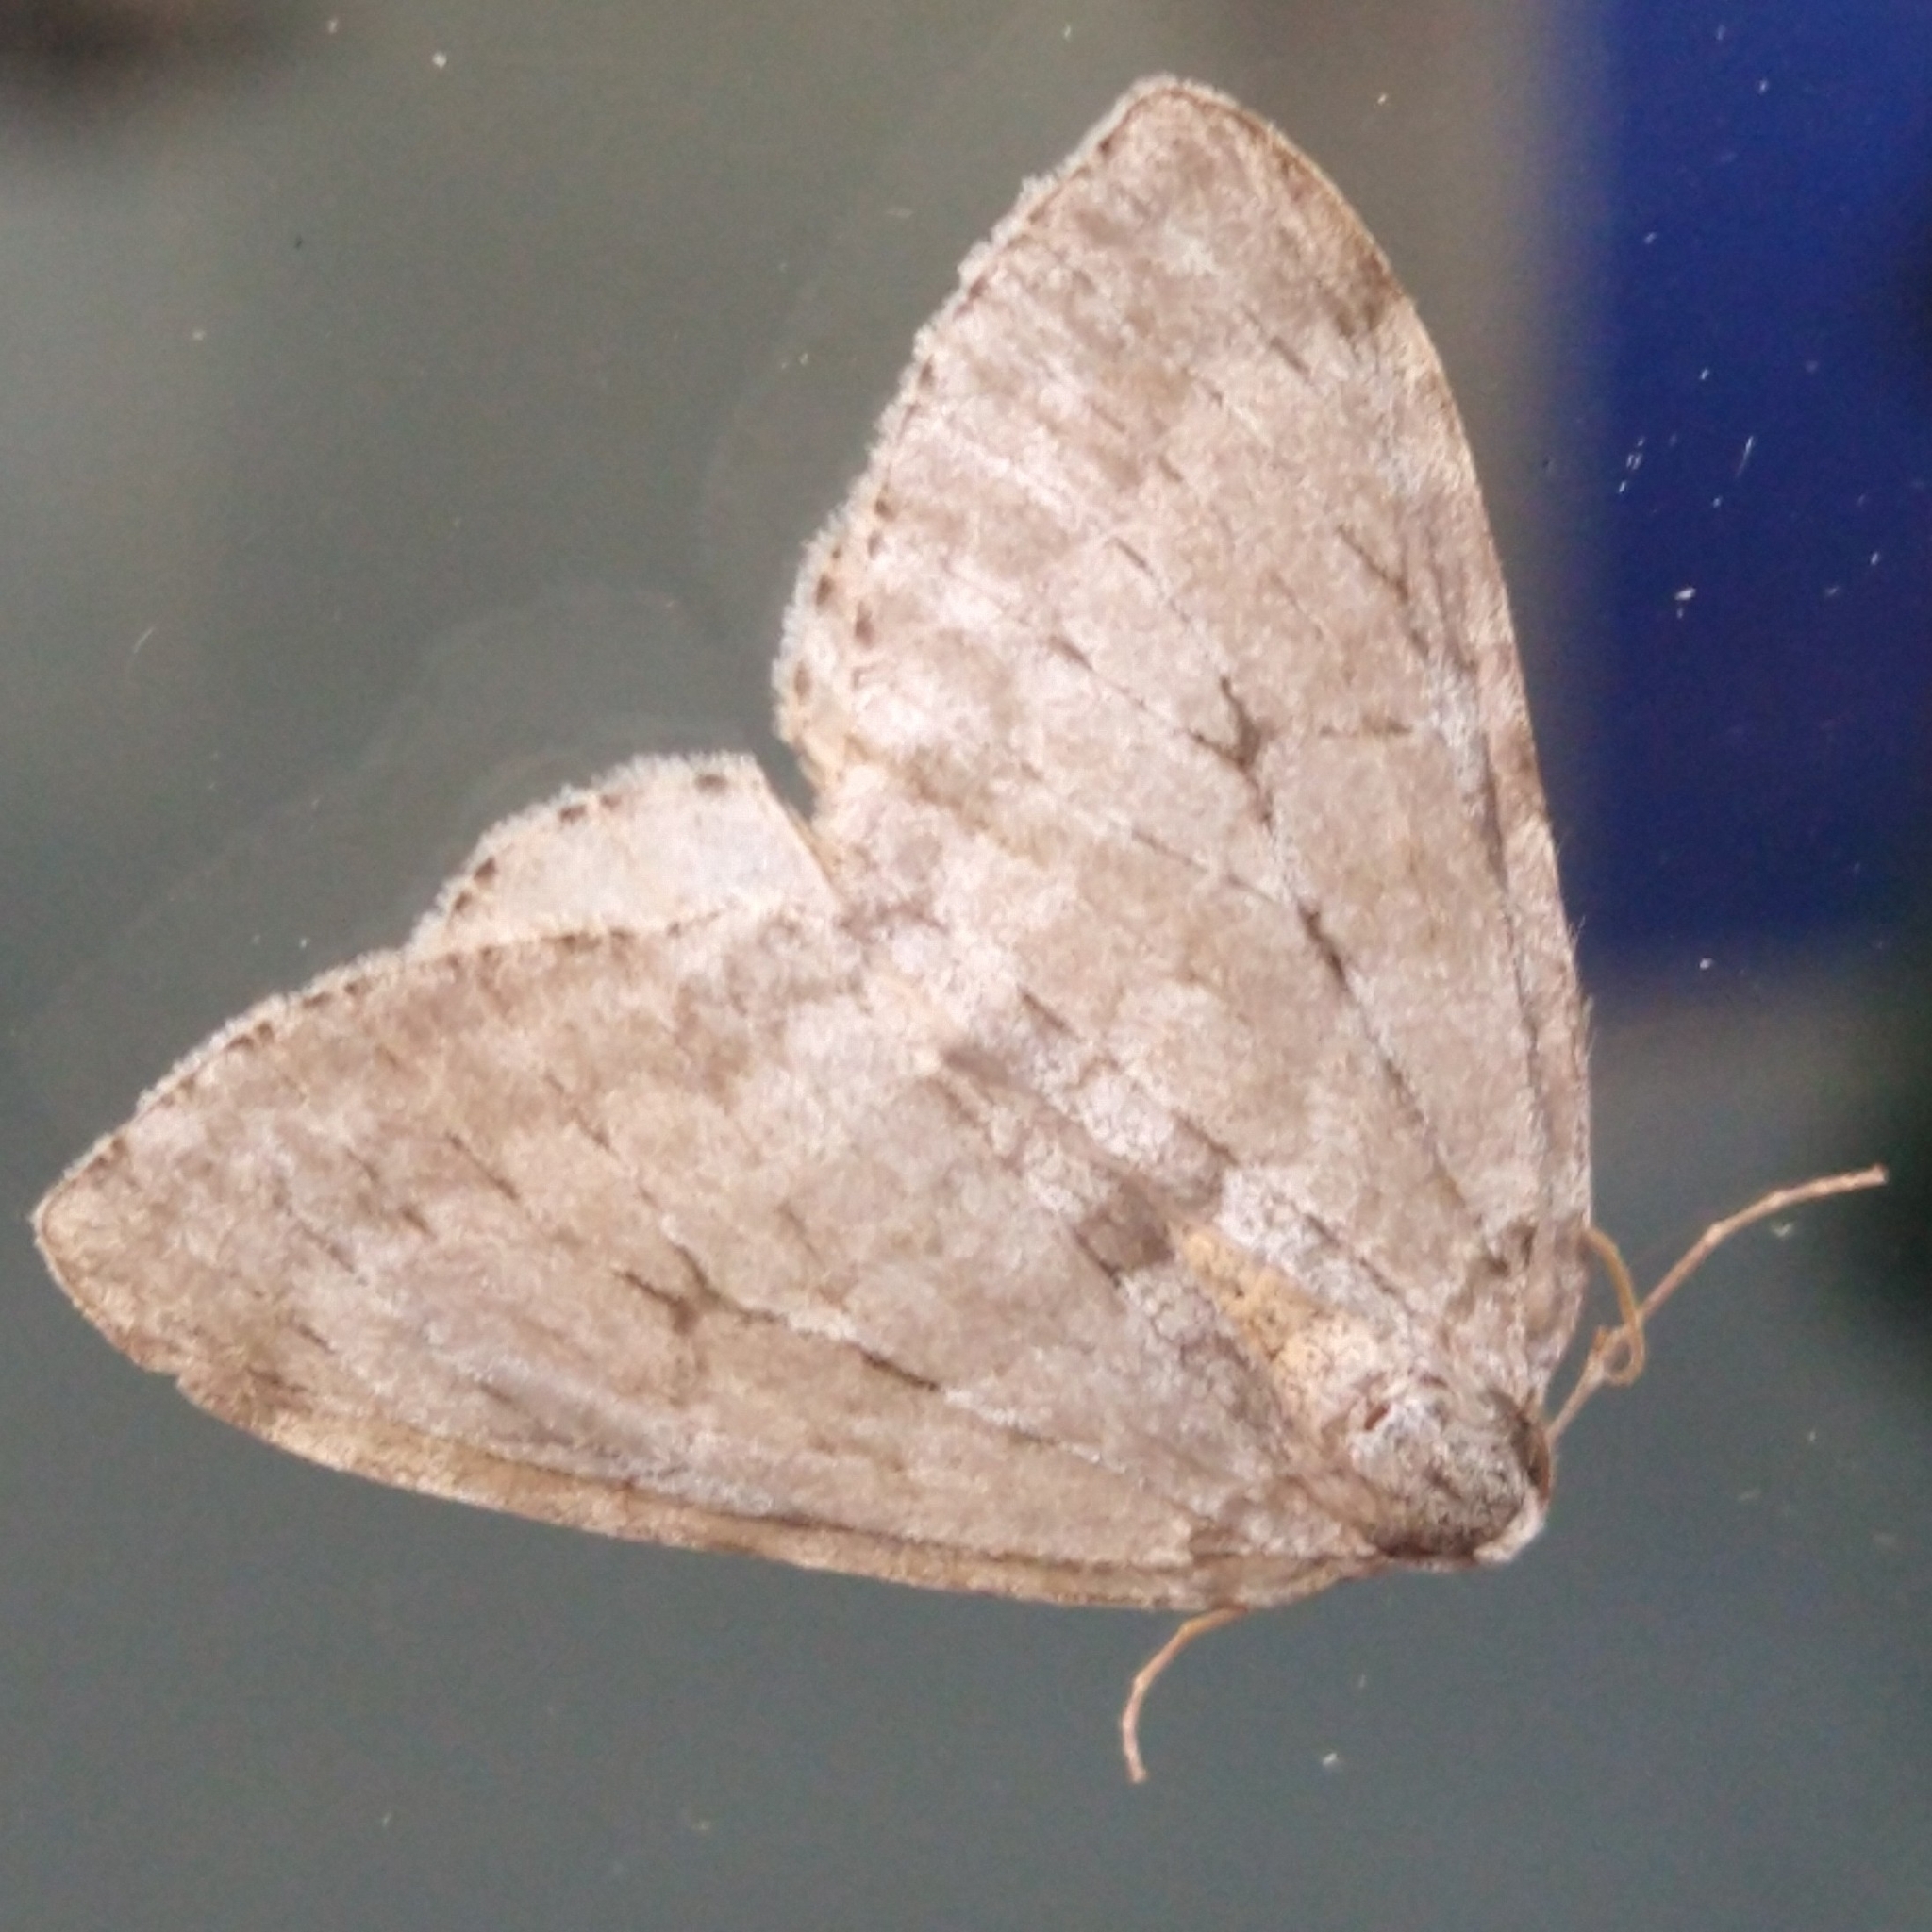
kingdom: Animalia
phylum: Arthropoda
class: Insecta
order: Lepidoptera
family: Geometridae
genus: Epirrita
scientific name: Epirrita
